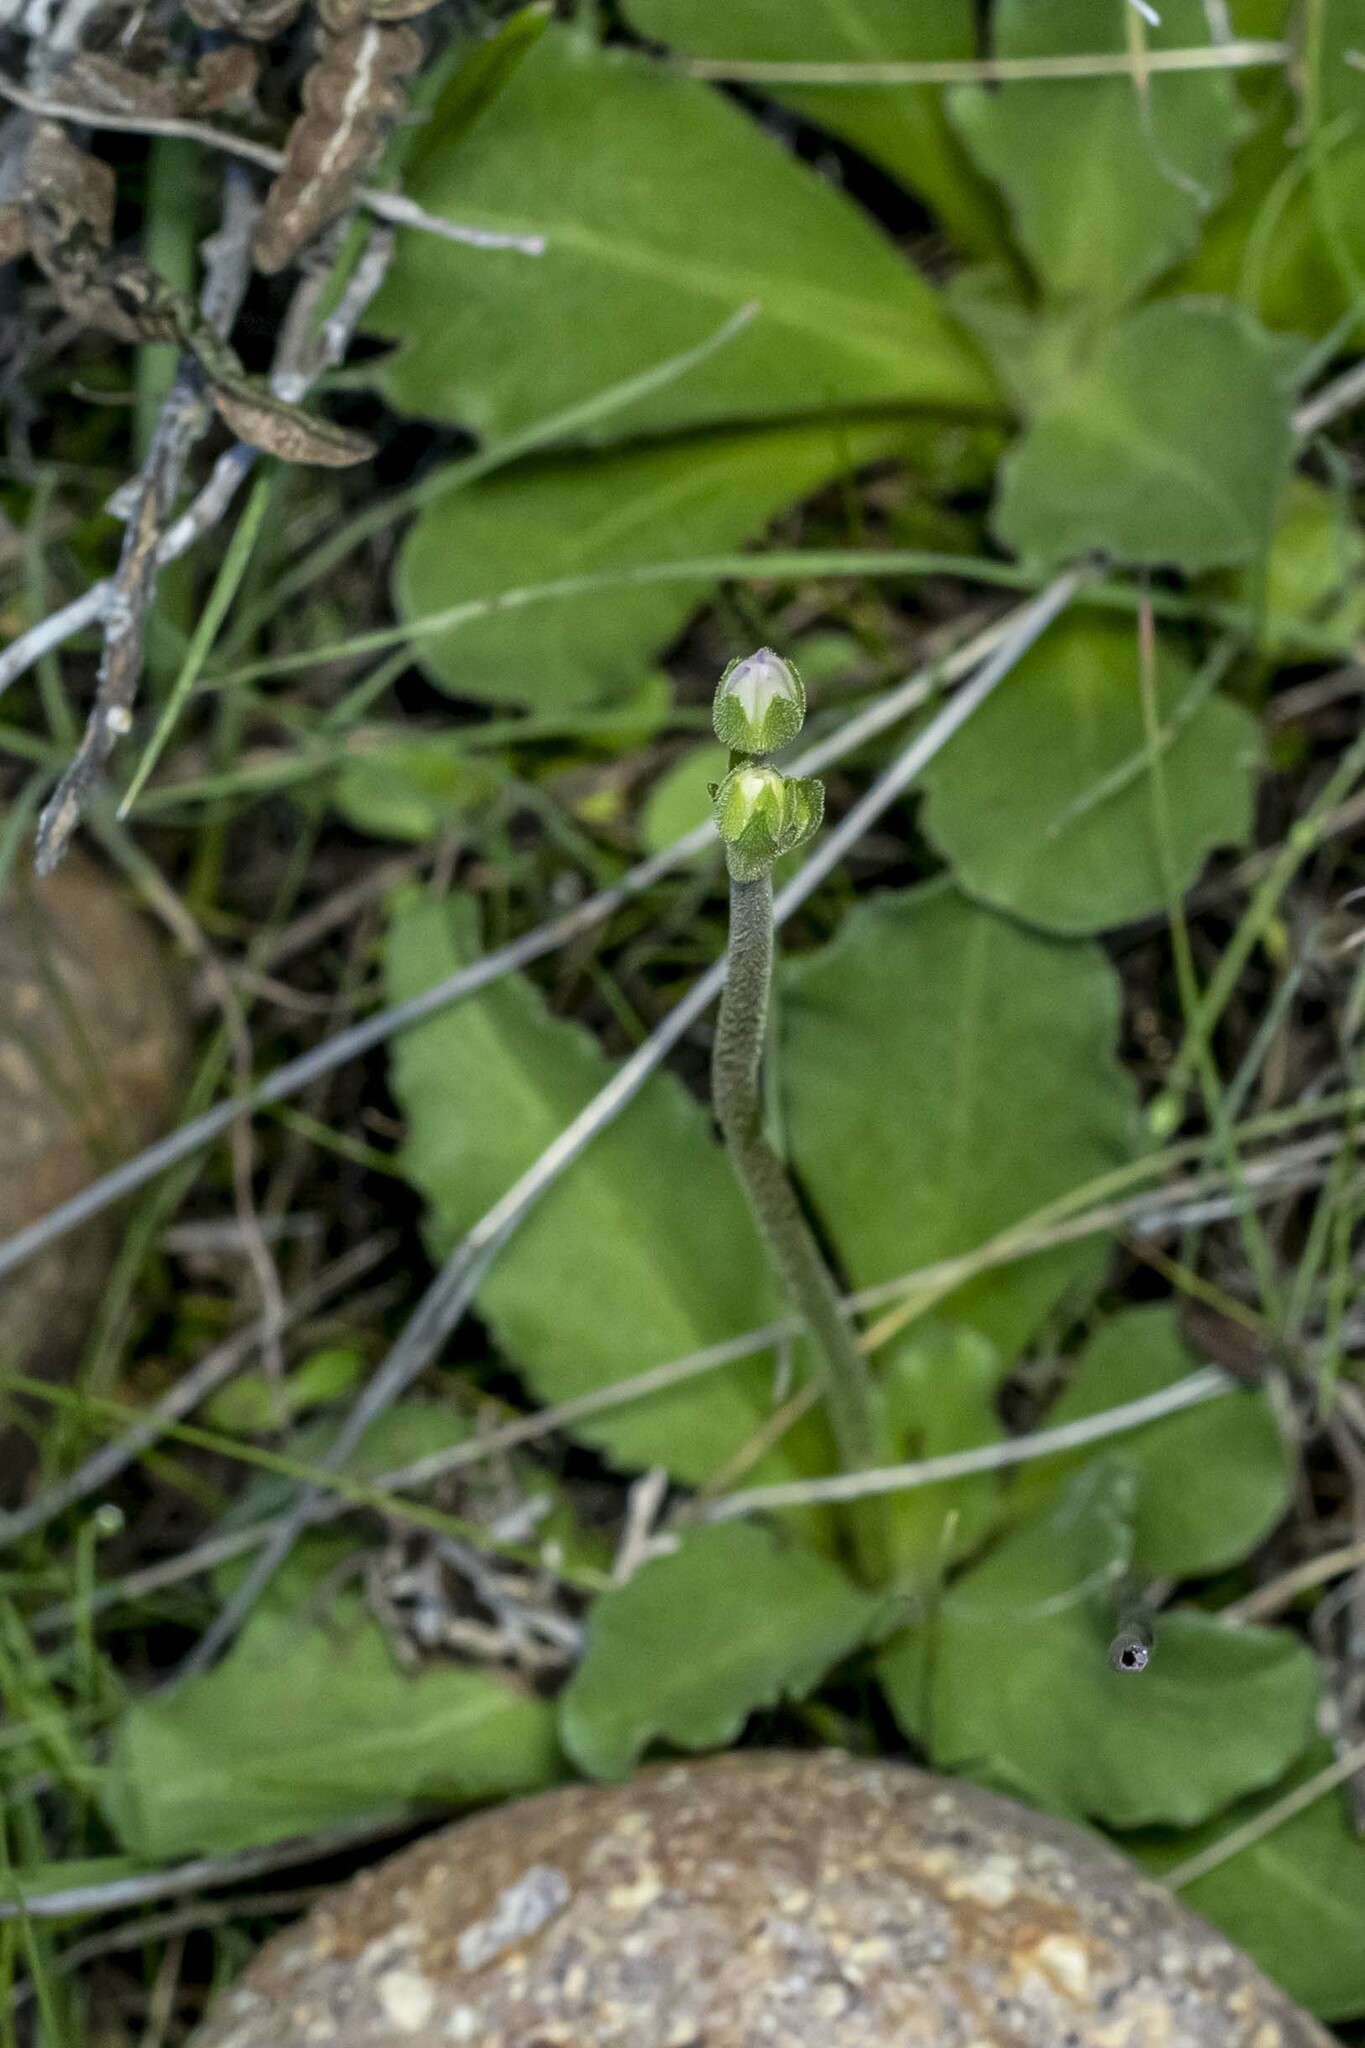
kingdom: Plantae
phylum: Tracheophyta
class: Magnoliopsida
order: Ericales
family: Primulaceae
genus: Dodecatheon
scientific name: Dodecatheon clevelandii
